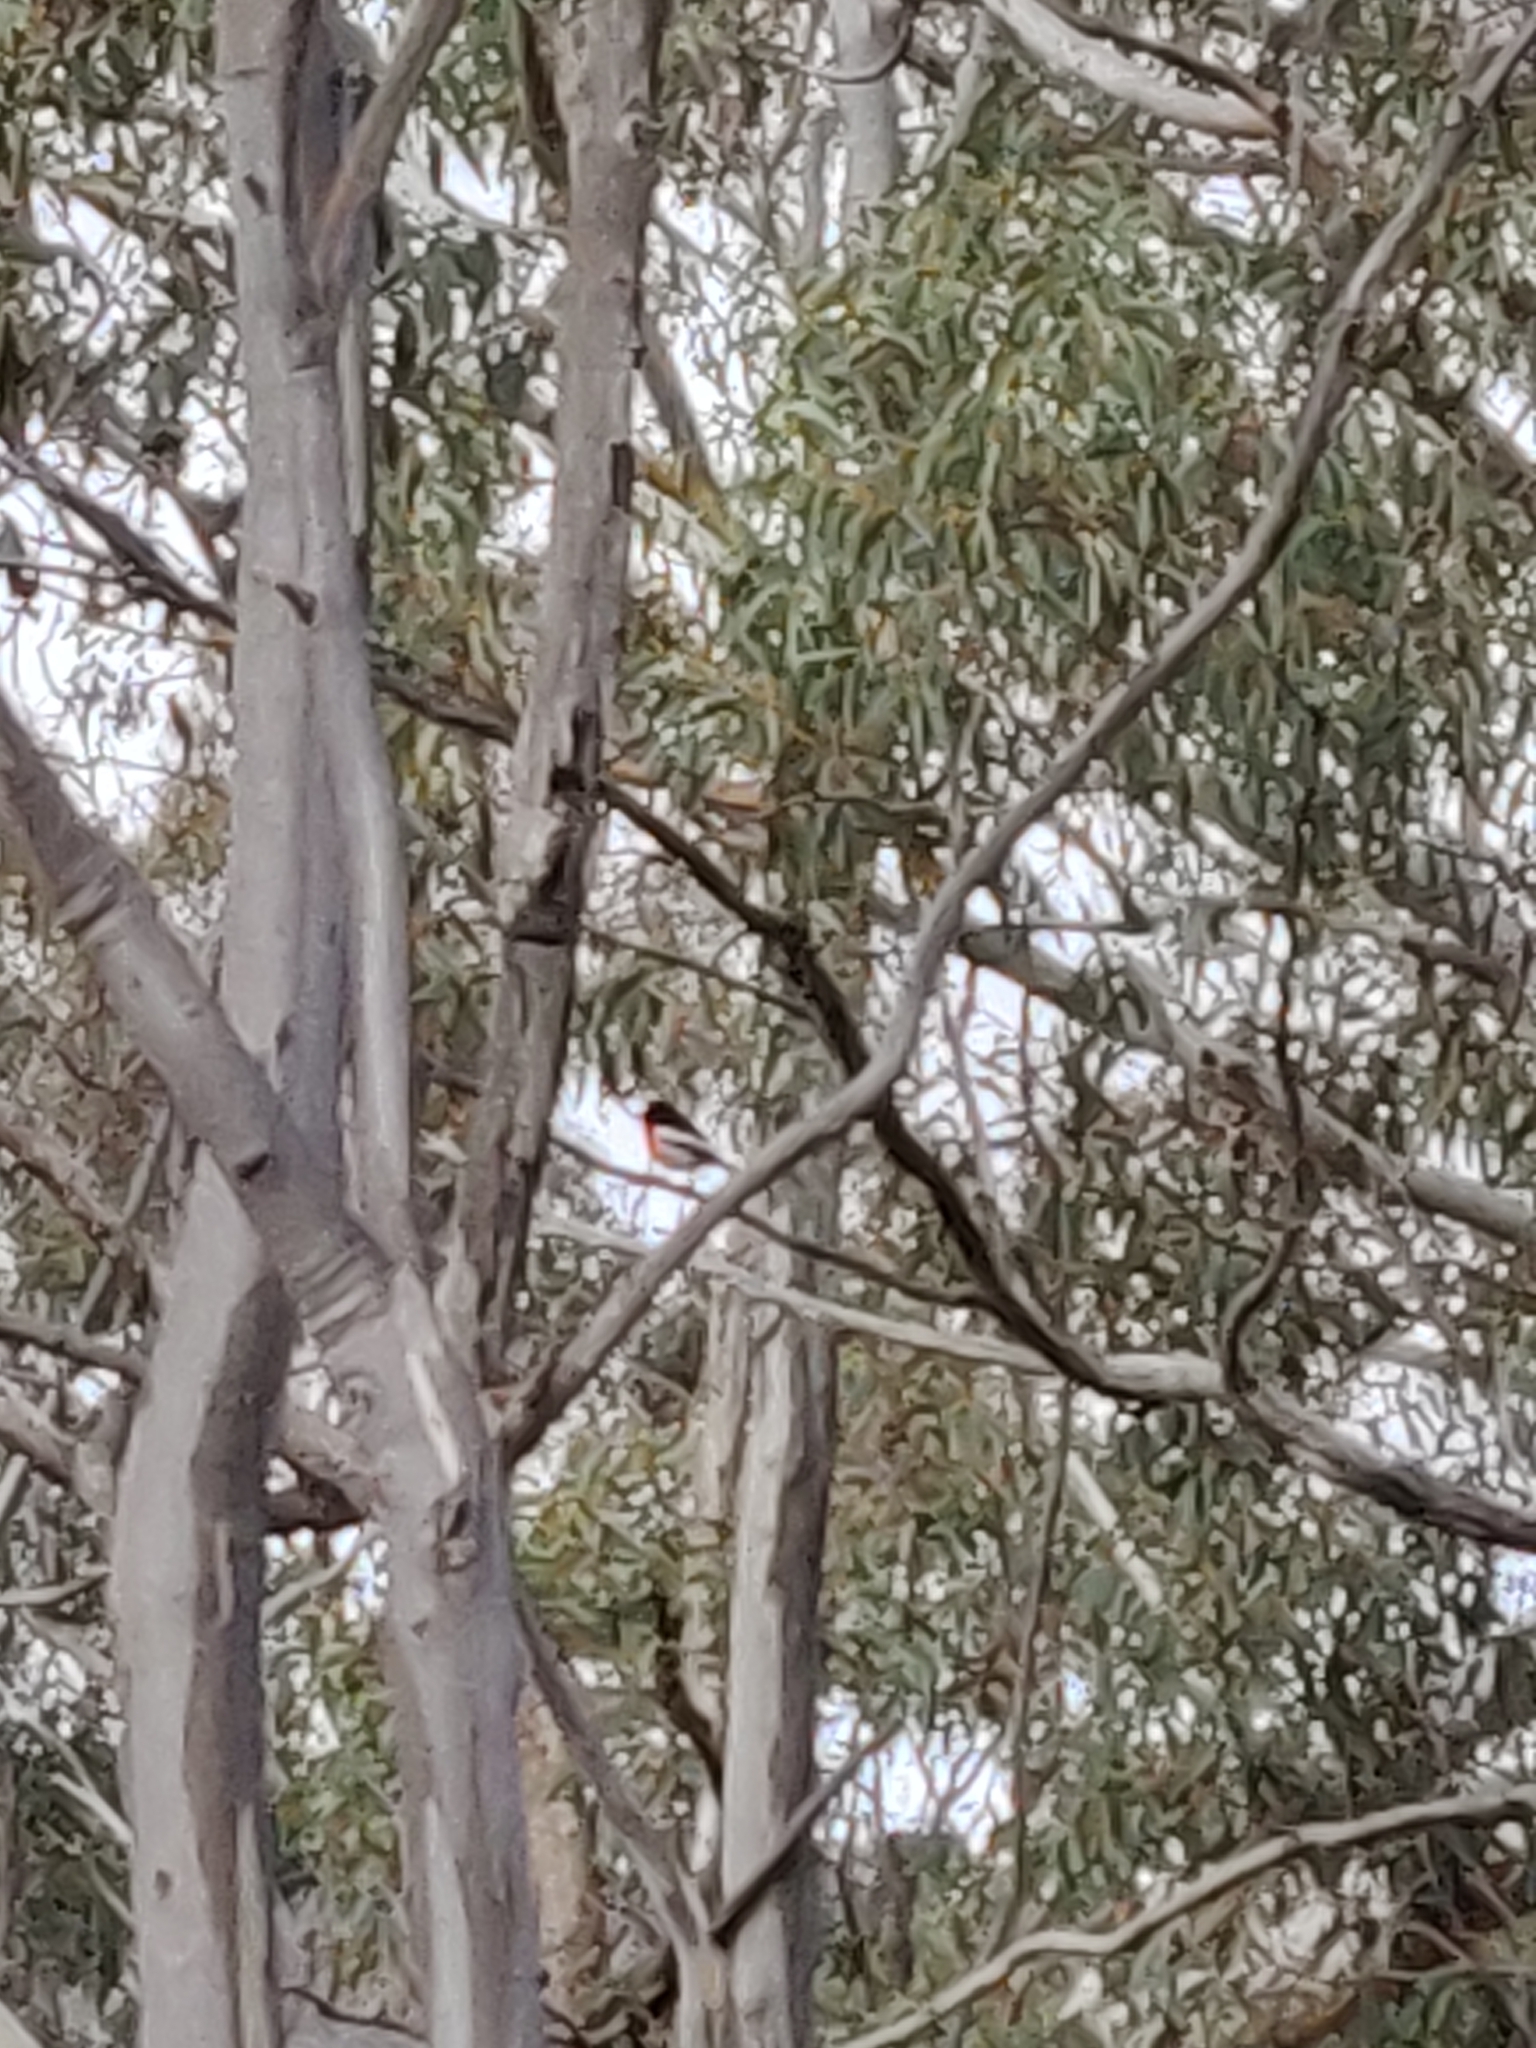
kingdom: Animalia
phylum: Chordata
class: Aves
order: Passeriformes
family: Petroicidae
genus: Petroica
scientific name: Petroica boodang
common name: Scarlet robin
